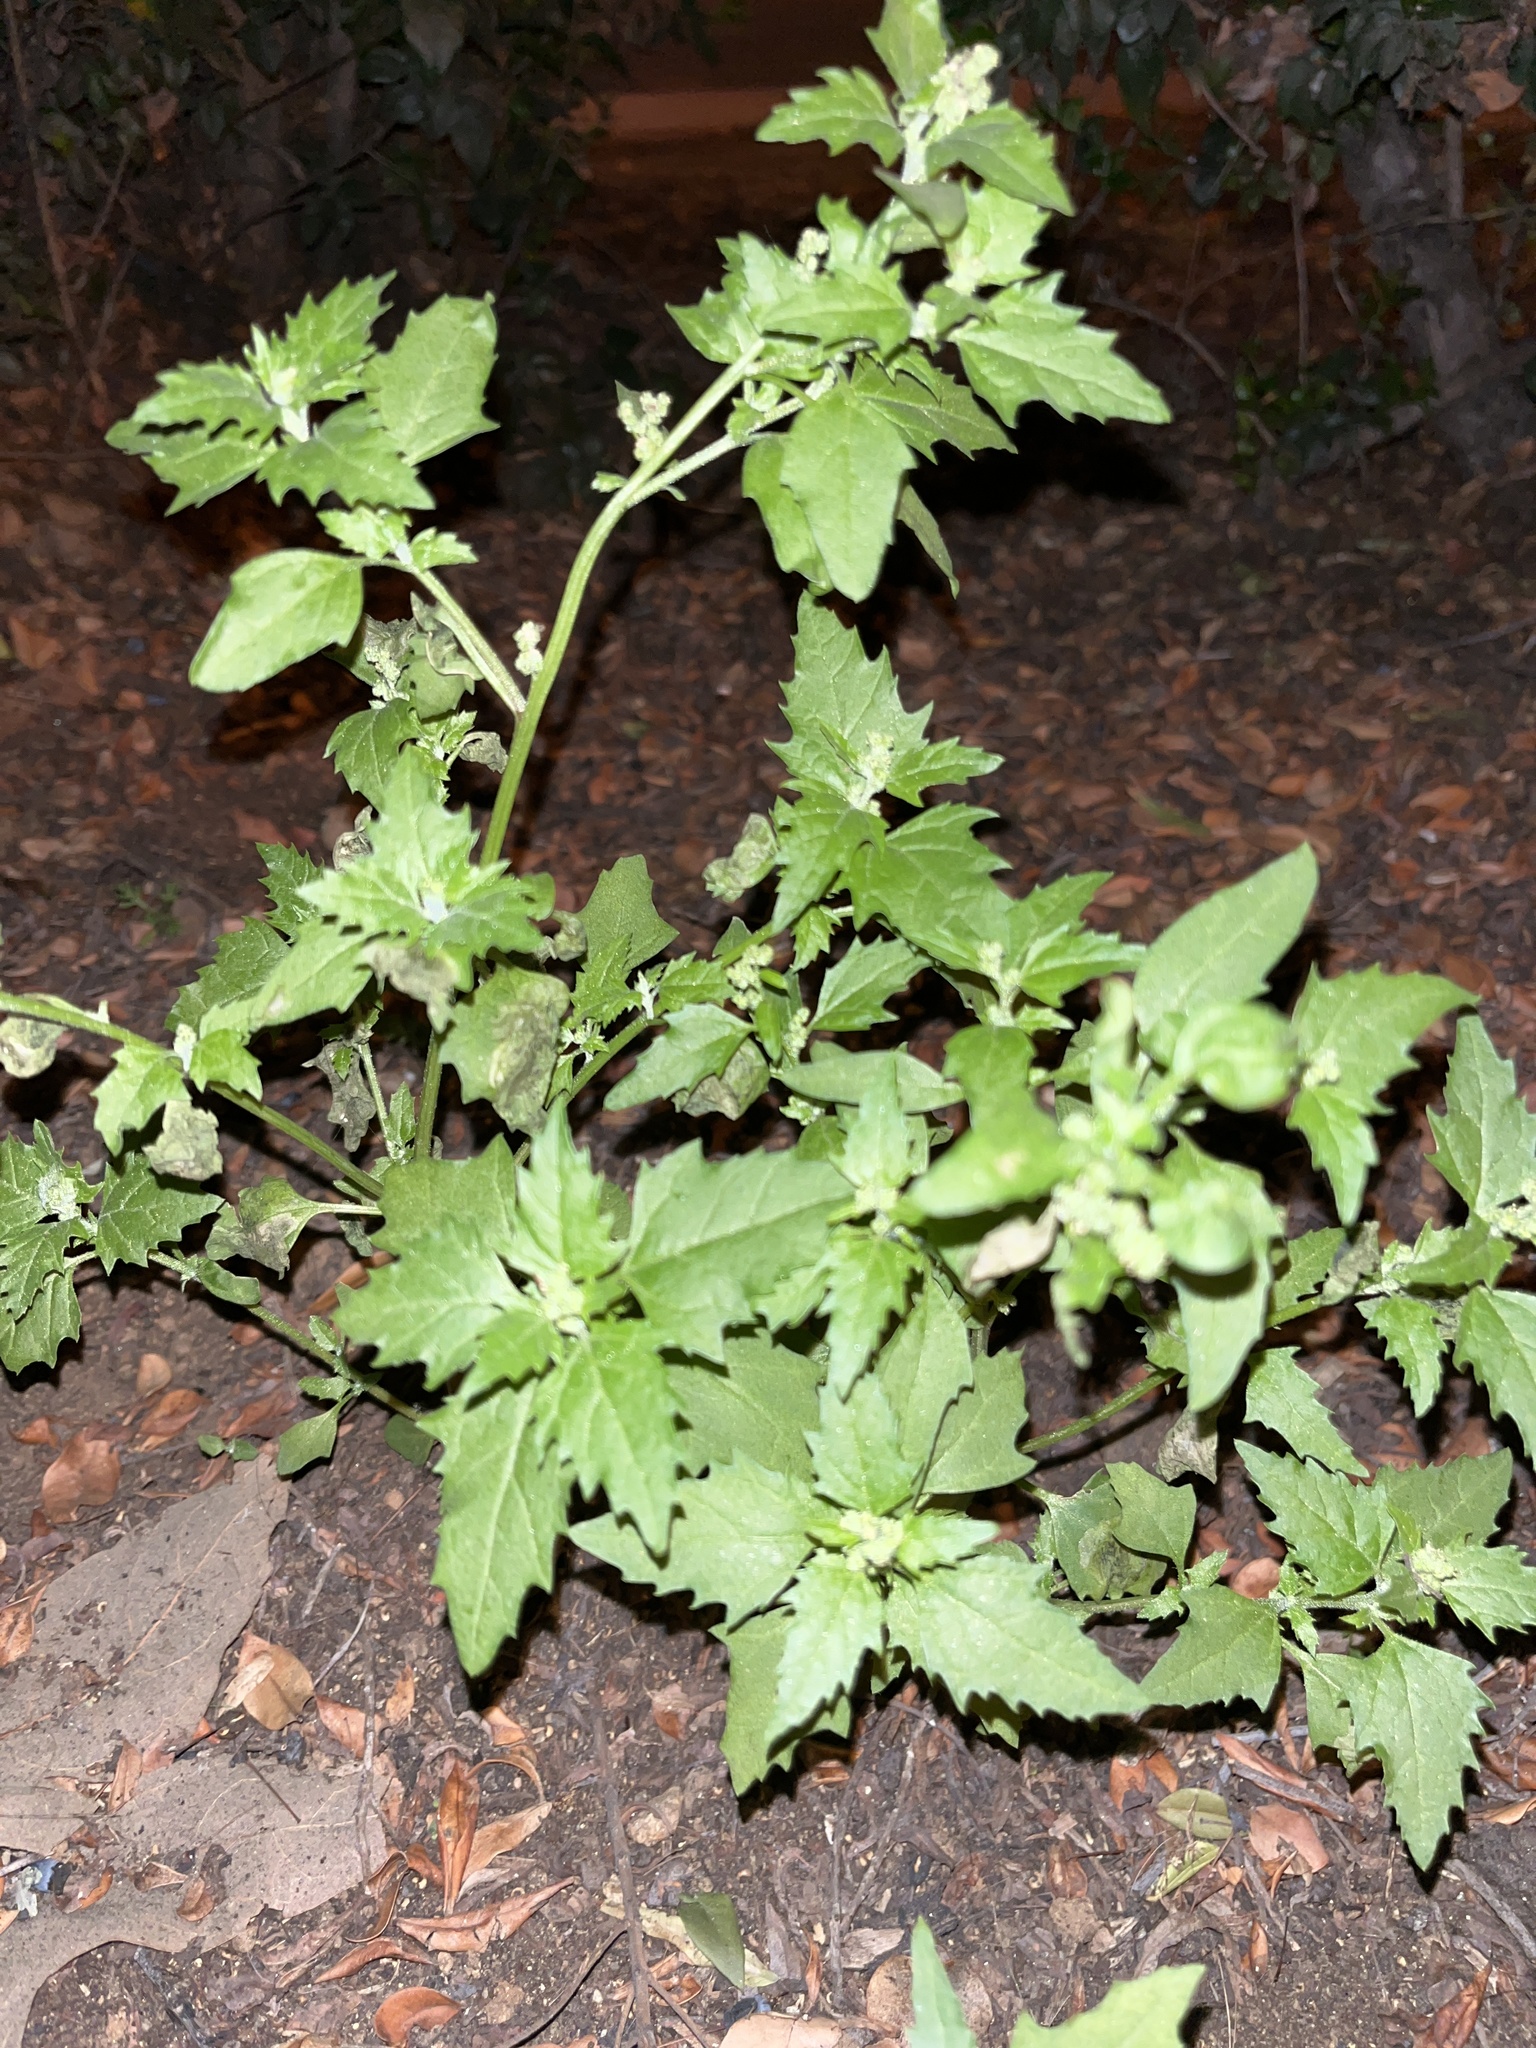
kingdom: Plantae
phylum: Tracheophyta
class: Magnoliopsida
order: Caryophyllales
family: Amaranthaceae
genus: Chenopodiastrum
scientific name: Chenopodiastrum murale
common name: Sowbane
